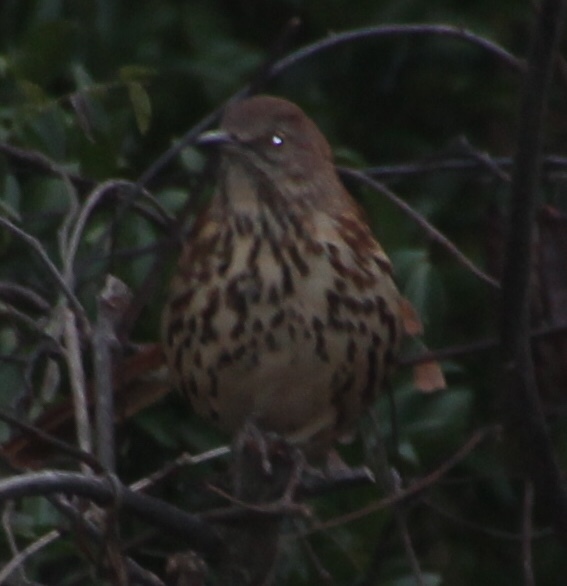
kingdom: Animalia
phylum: Chordata
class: Aves
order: Passeriformes
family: Mimidae
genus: Toxostoma
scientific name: Toxostoma rufum
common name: Brown thrasher
